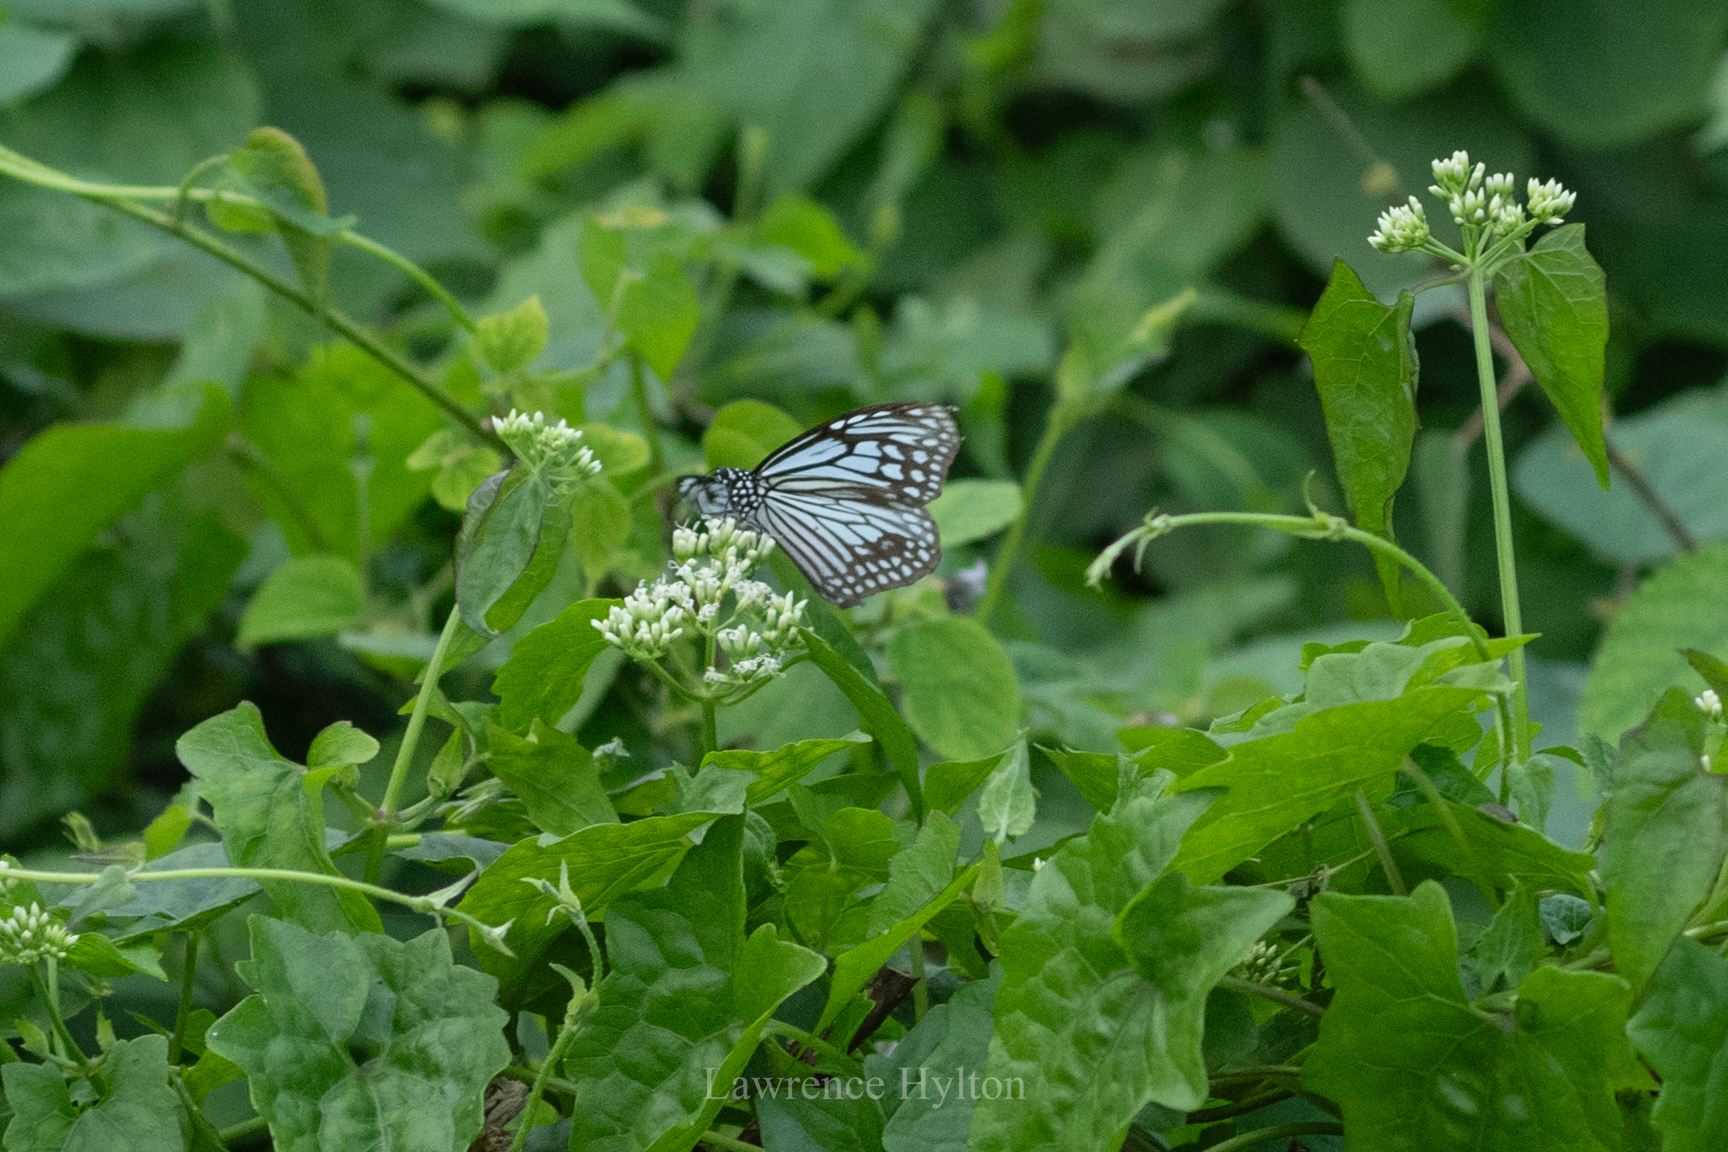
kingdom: Animalia
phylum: Arthropoda
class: Insecta
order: Lepidoptera
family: Nymphalidae
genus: Parantica
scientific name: Parantica aglea
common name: Glassy tiger
